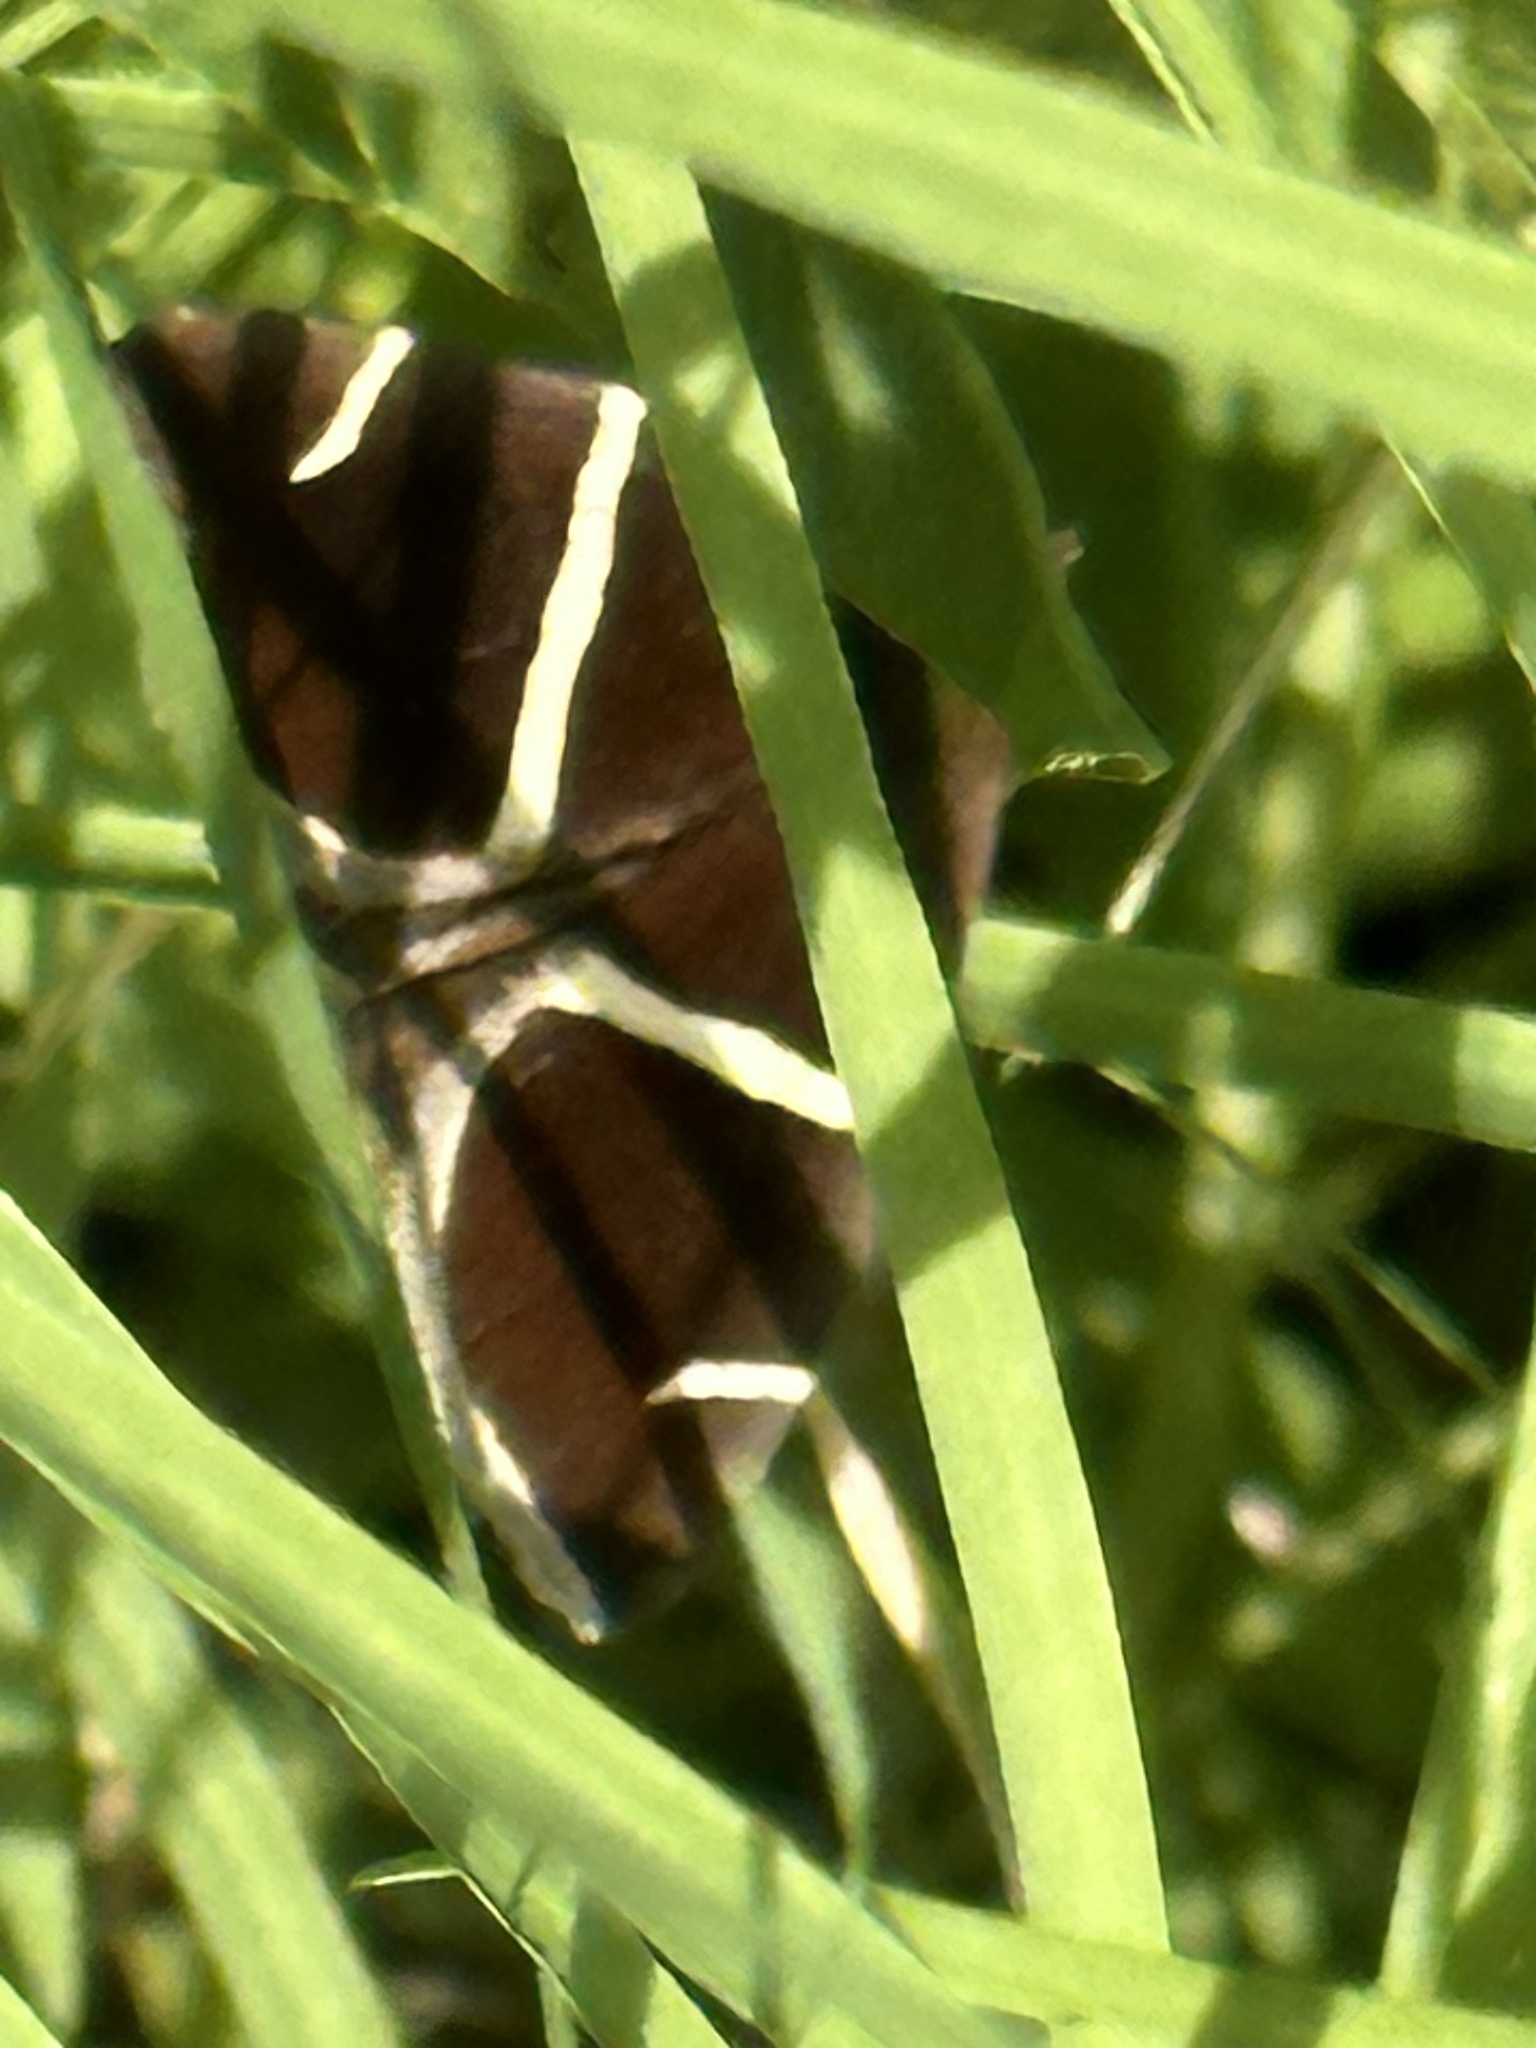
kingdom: Animalia
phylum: Arthropoda
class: Insecta
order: Lepidoptera
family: Erebidae
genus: Argyrostrotis
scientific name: Argyrostrotis anilis
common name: Short-lined chocolate
